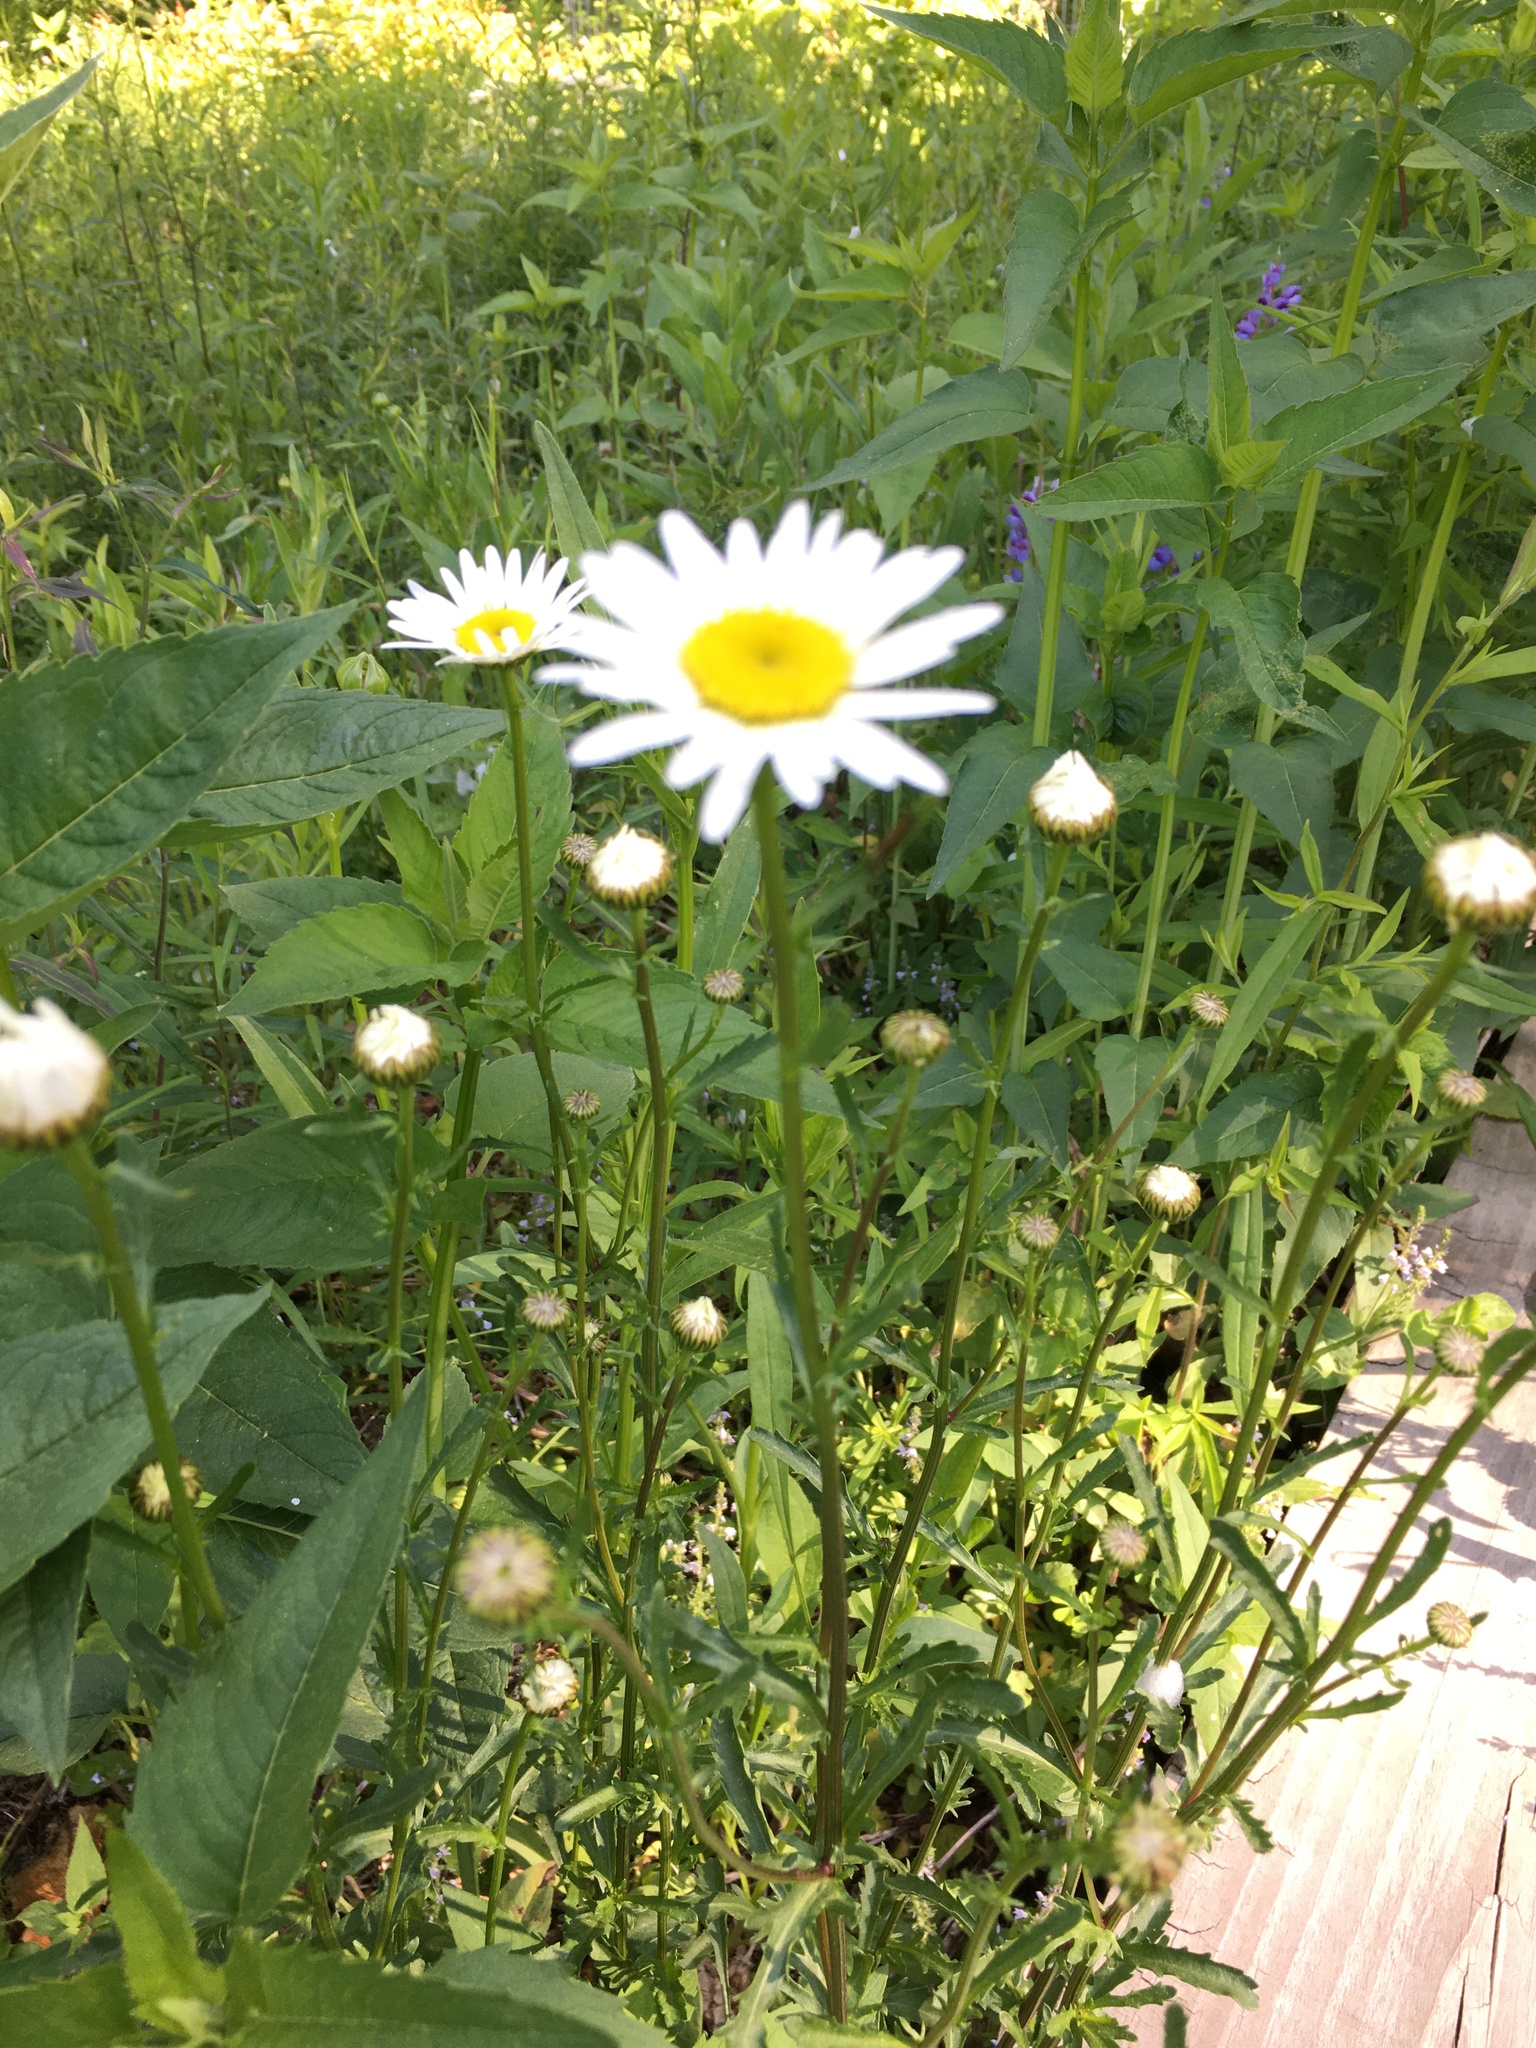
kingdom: Plantae
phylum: Tracheophyta
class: Magnoliopsida
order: Asterales
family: Asteraceae
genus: Leucanthemum
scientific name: Leucanthemum vulgare
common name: Oxeye daisy
